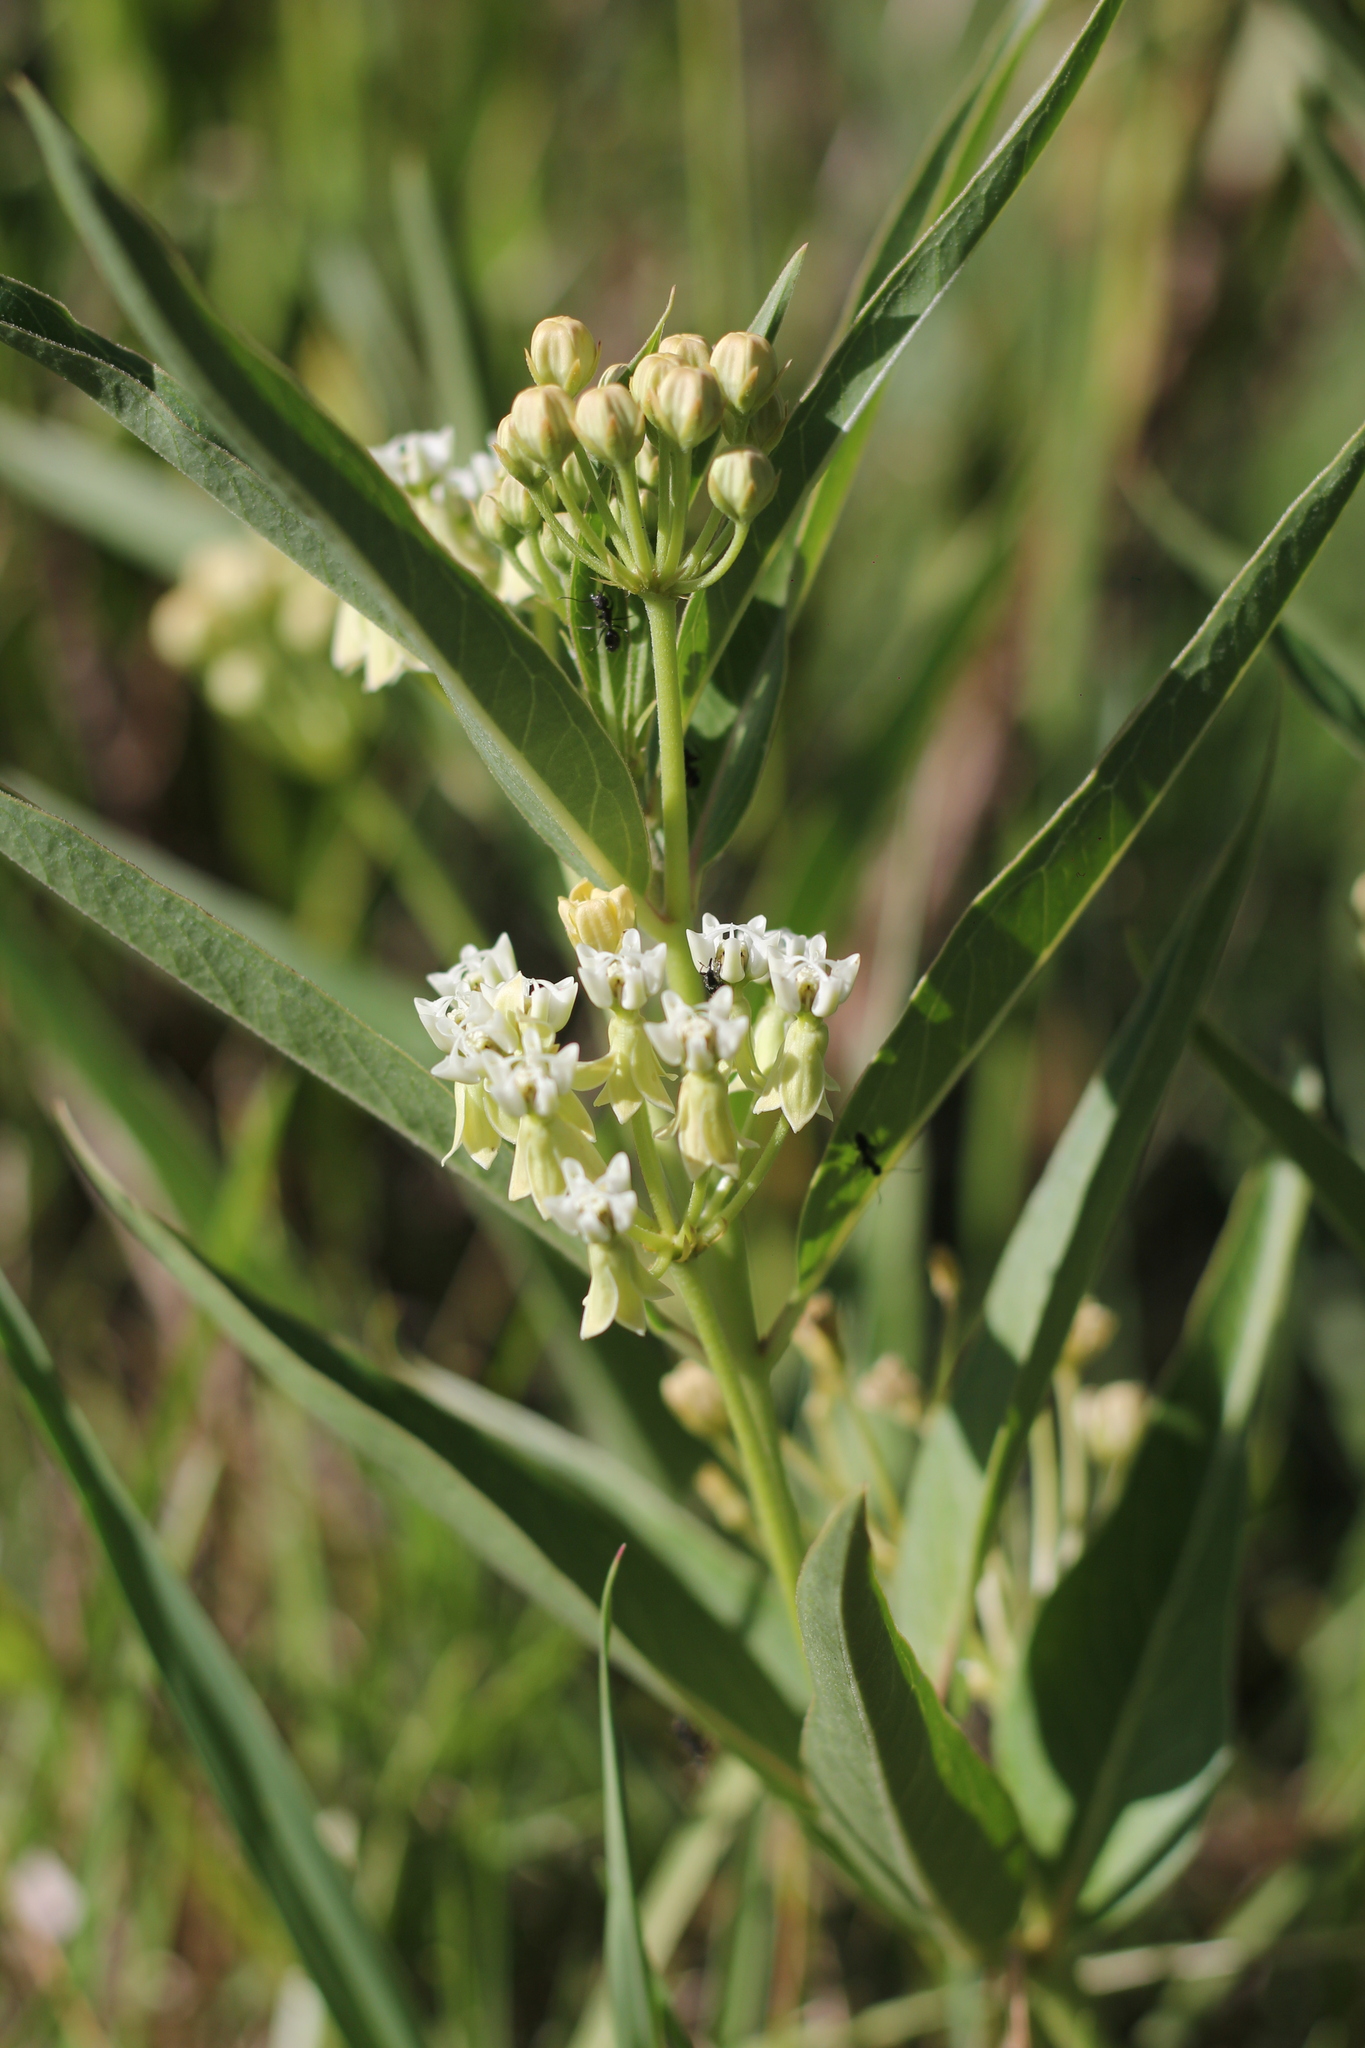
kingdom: Plantae
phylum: Tracheophyta
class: Magnoliopsida
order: Gentianales
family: Apocynaceae
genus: Asclepias
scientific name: Asclepias mellodora
